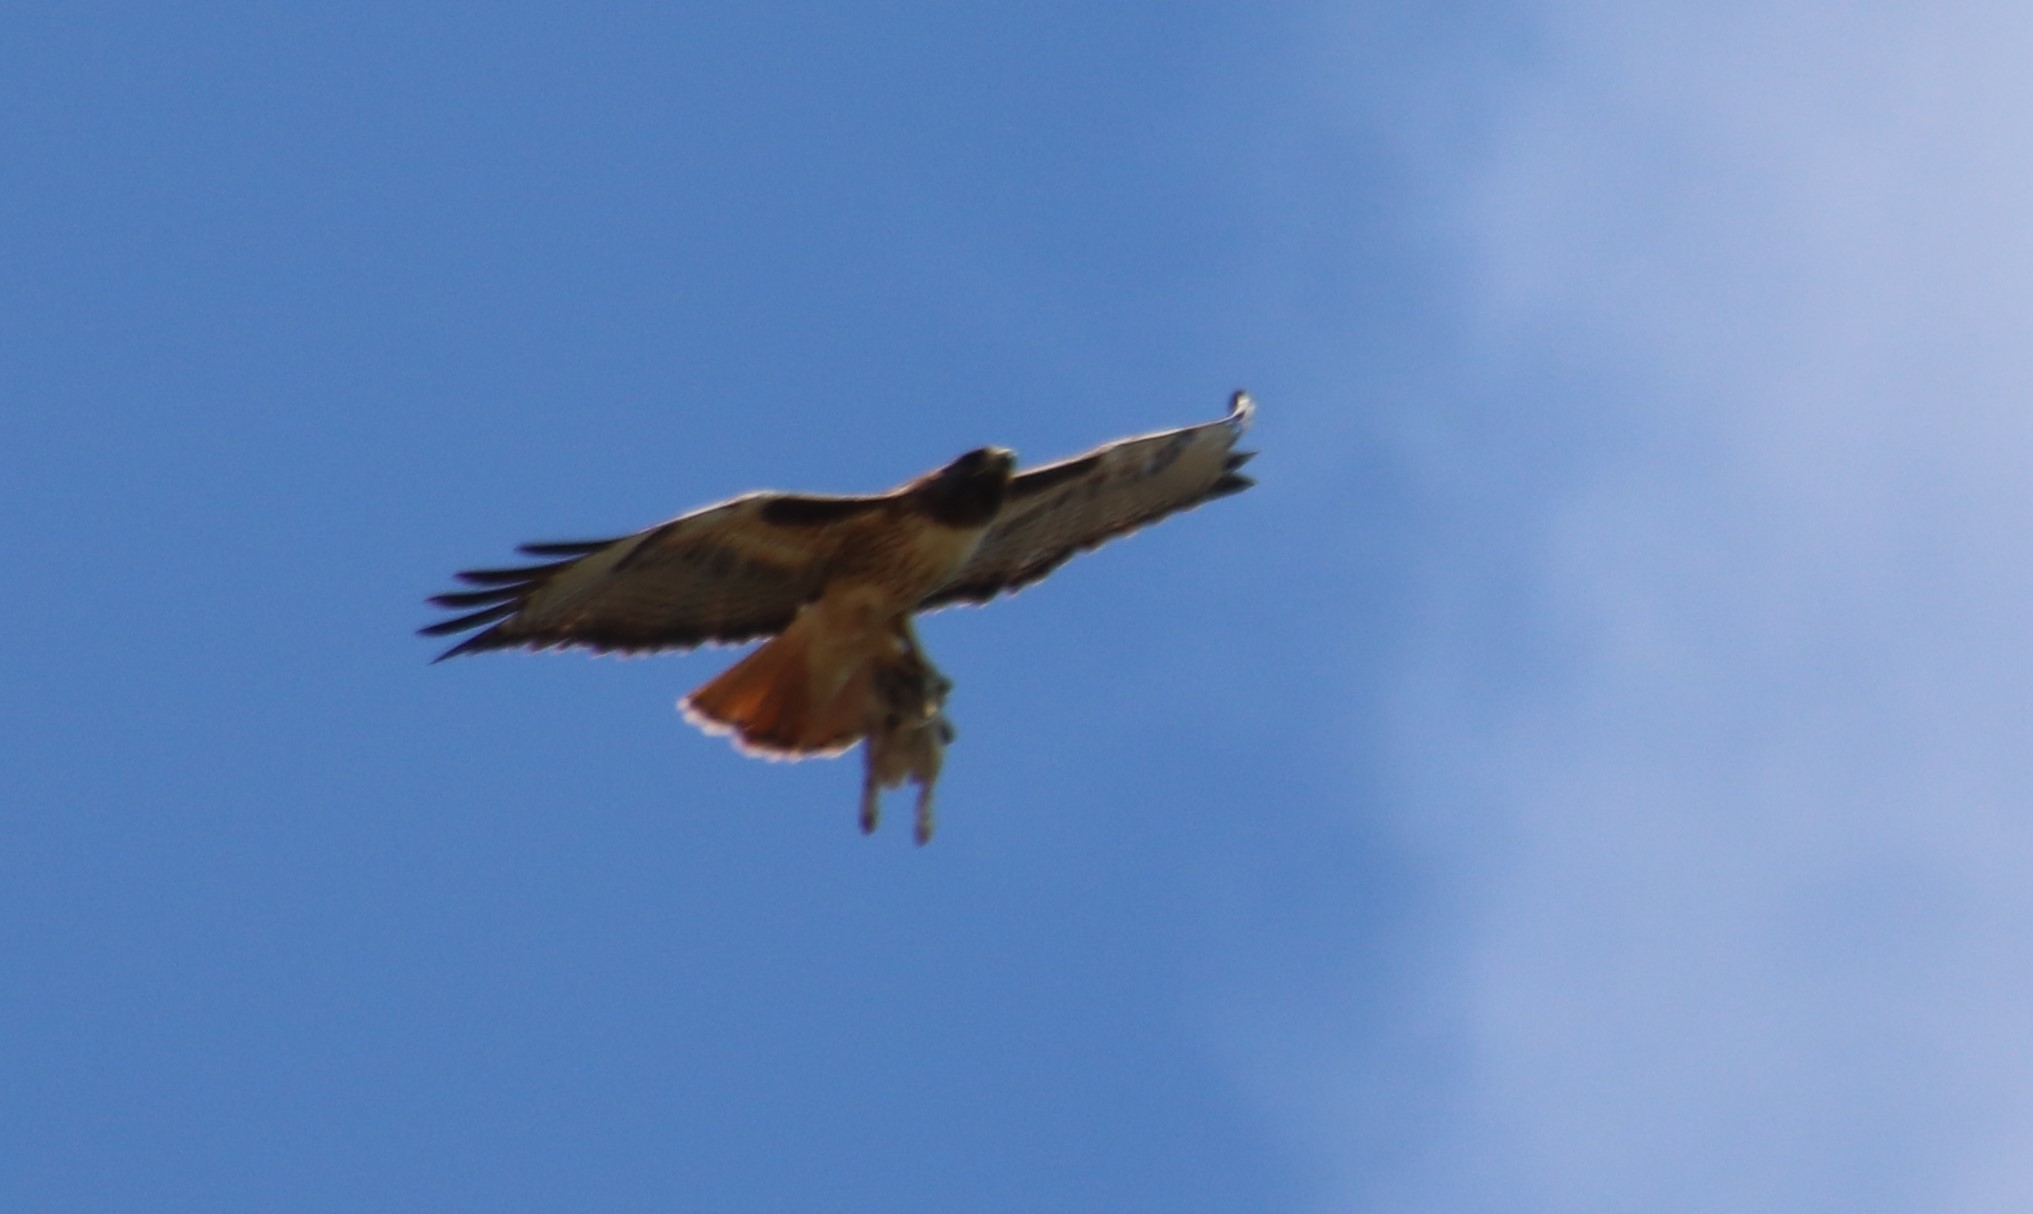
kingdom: Animalia
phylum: Chordata
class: Aves
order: Accipitriformes
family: Accipitridae
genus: Buteo
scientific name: Buteo jamaicensis
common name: Red-tailed hawk
